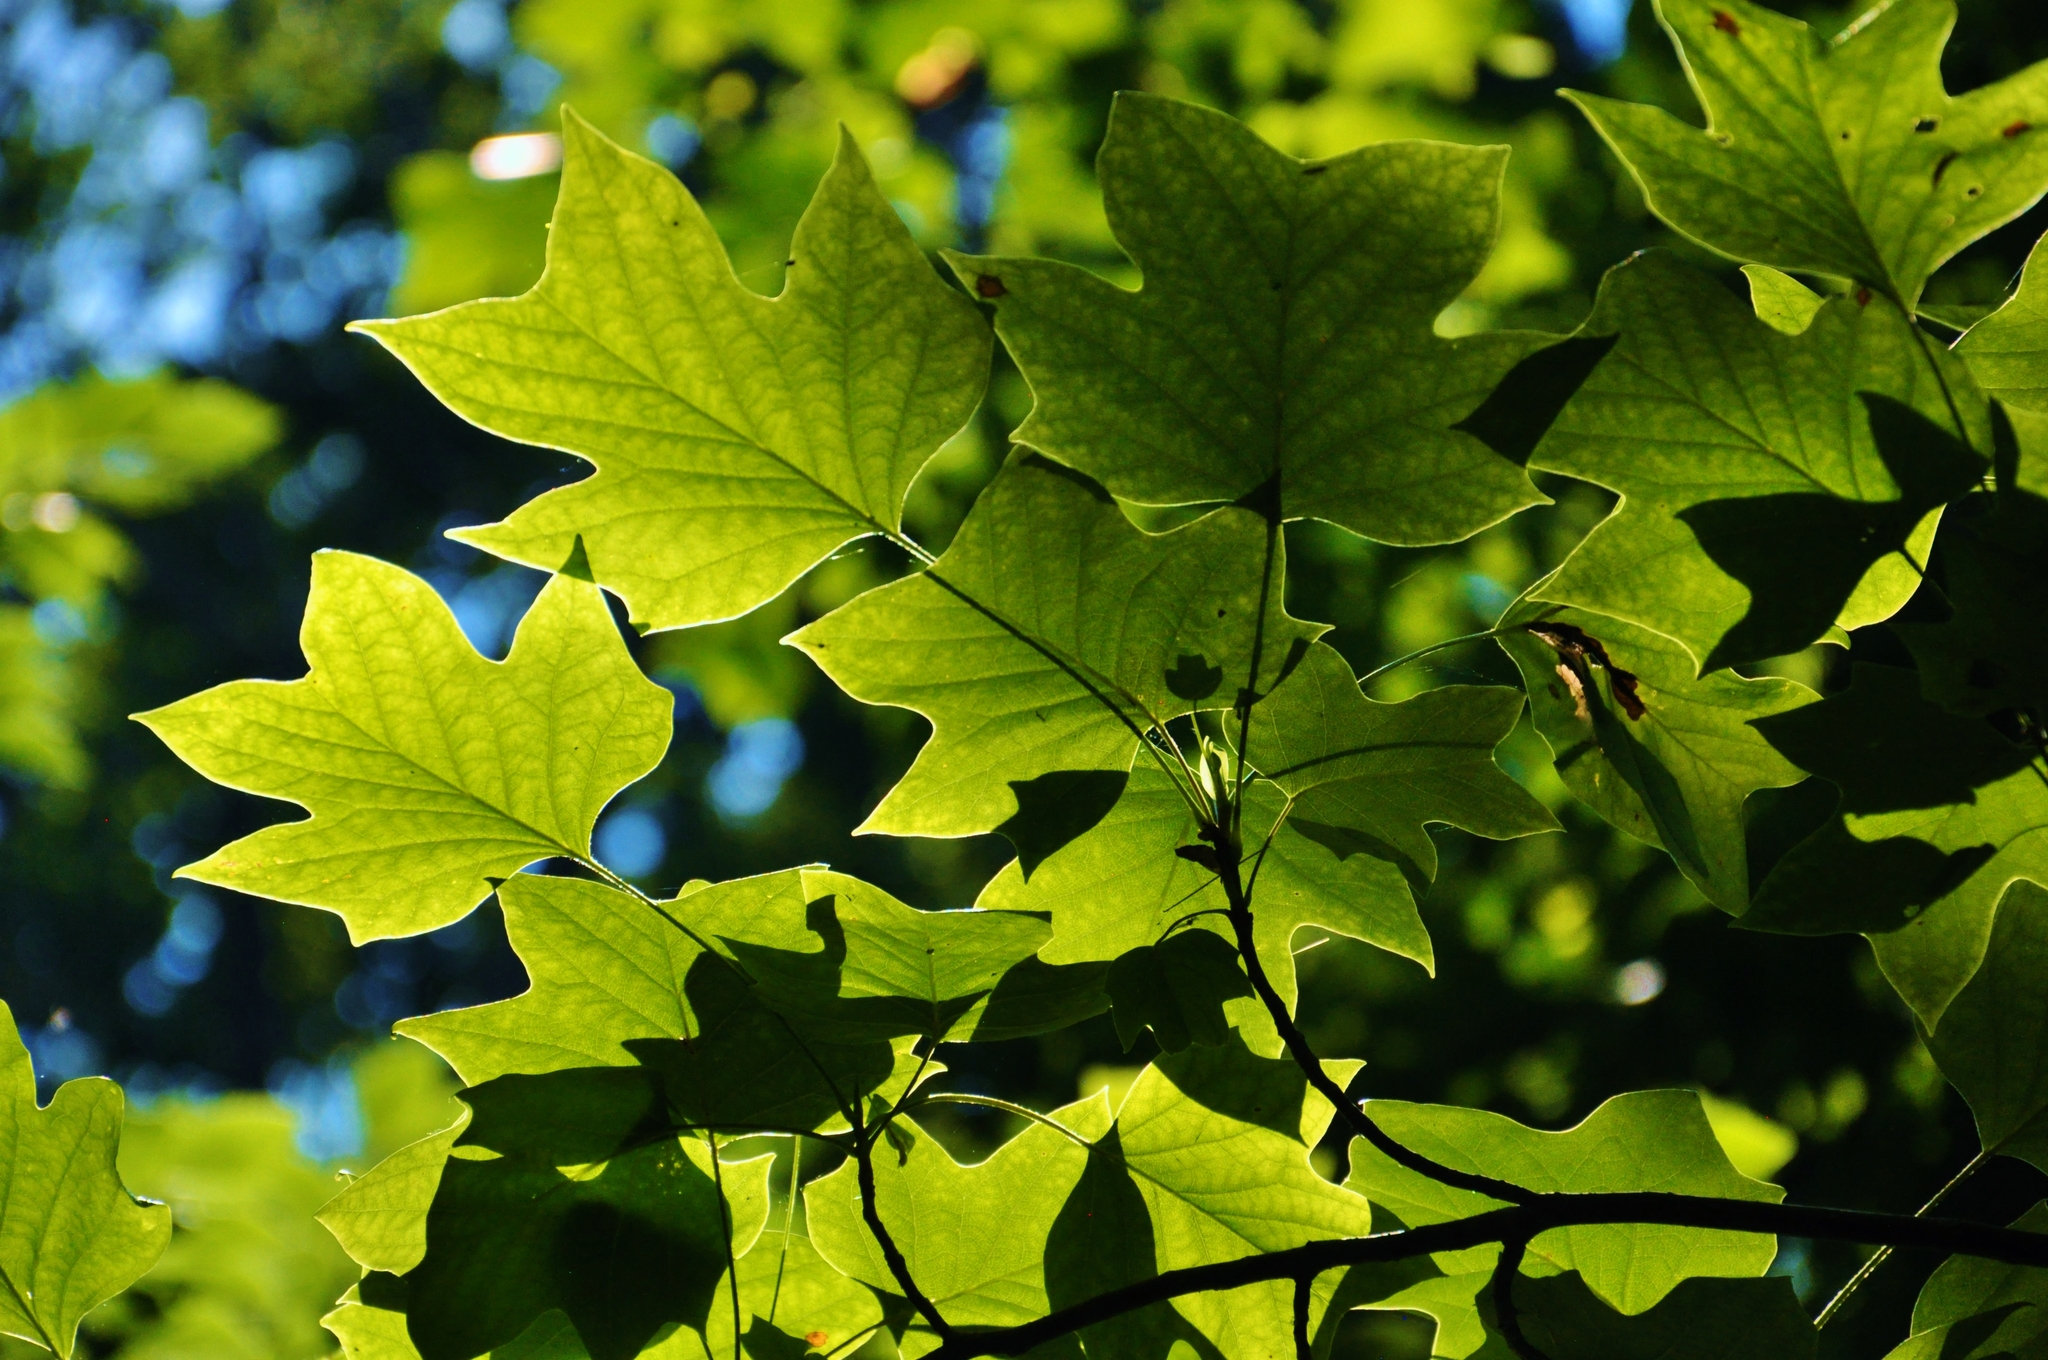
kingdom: Plantae
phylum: Tracheophyta
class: Magnoliopsida
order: Magnoliales
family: Magnoliaceae
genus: Liriodendron
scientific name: Liriodendron tulipifera
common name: Tulip tree
